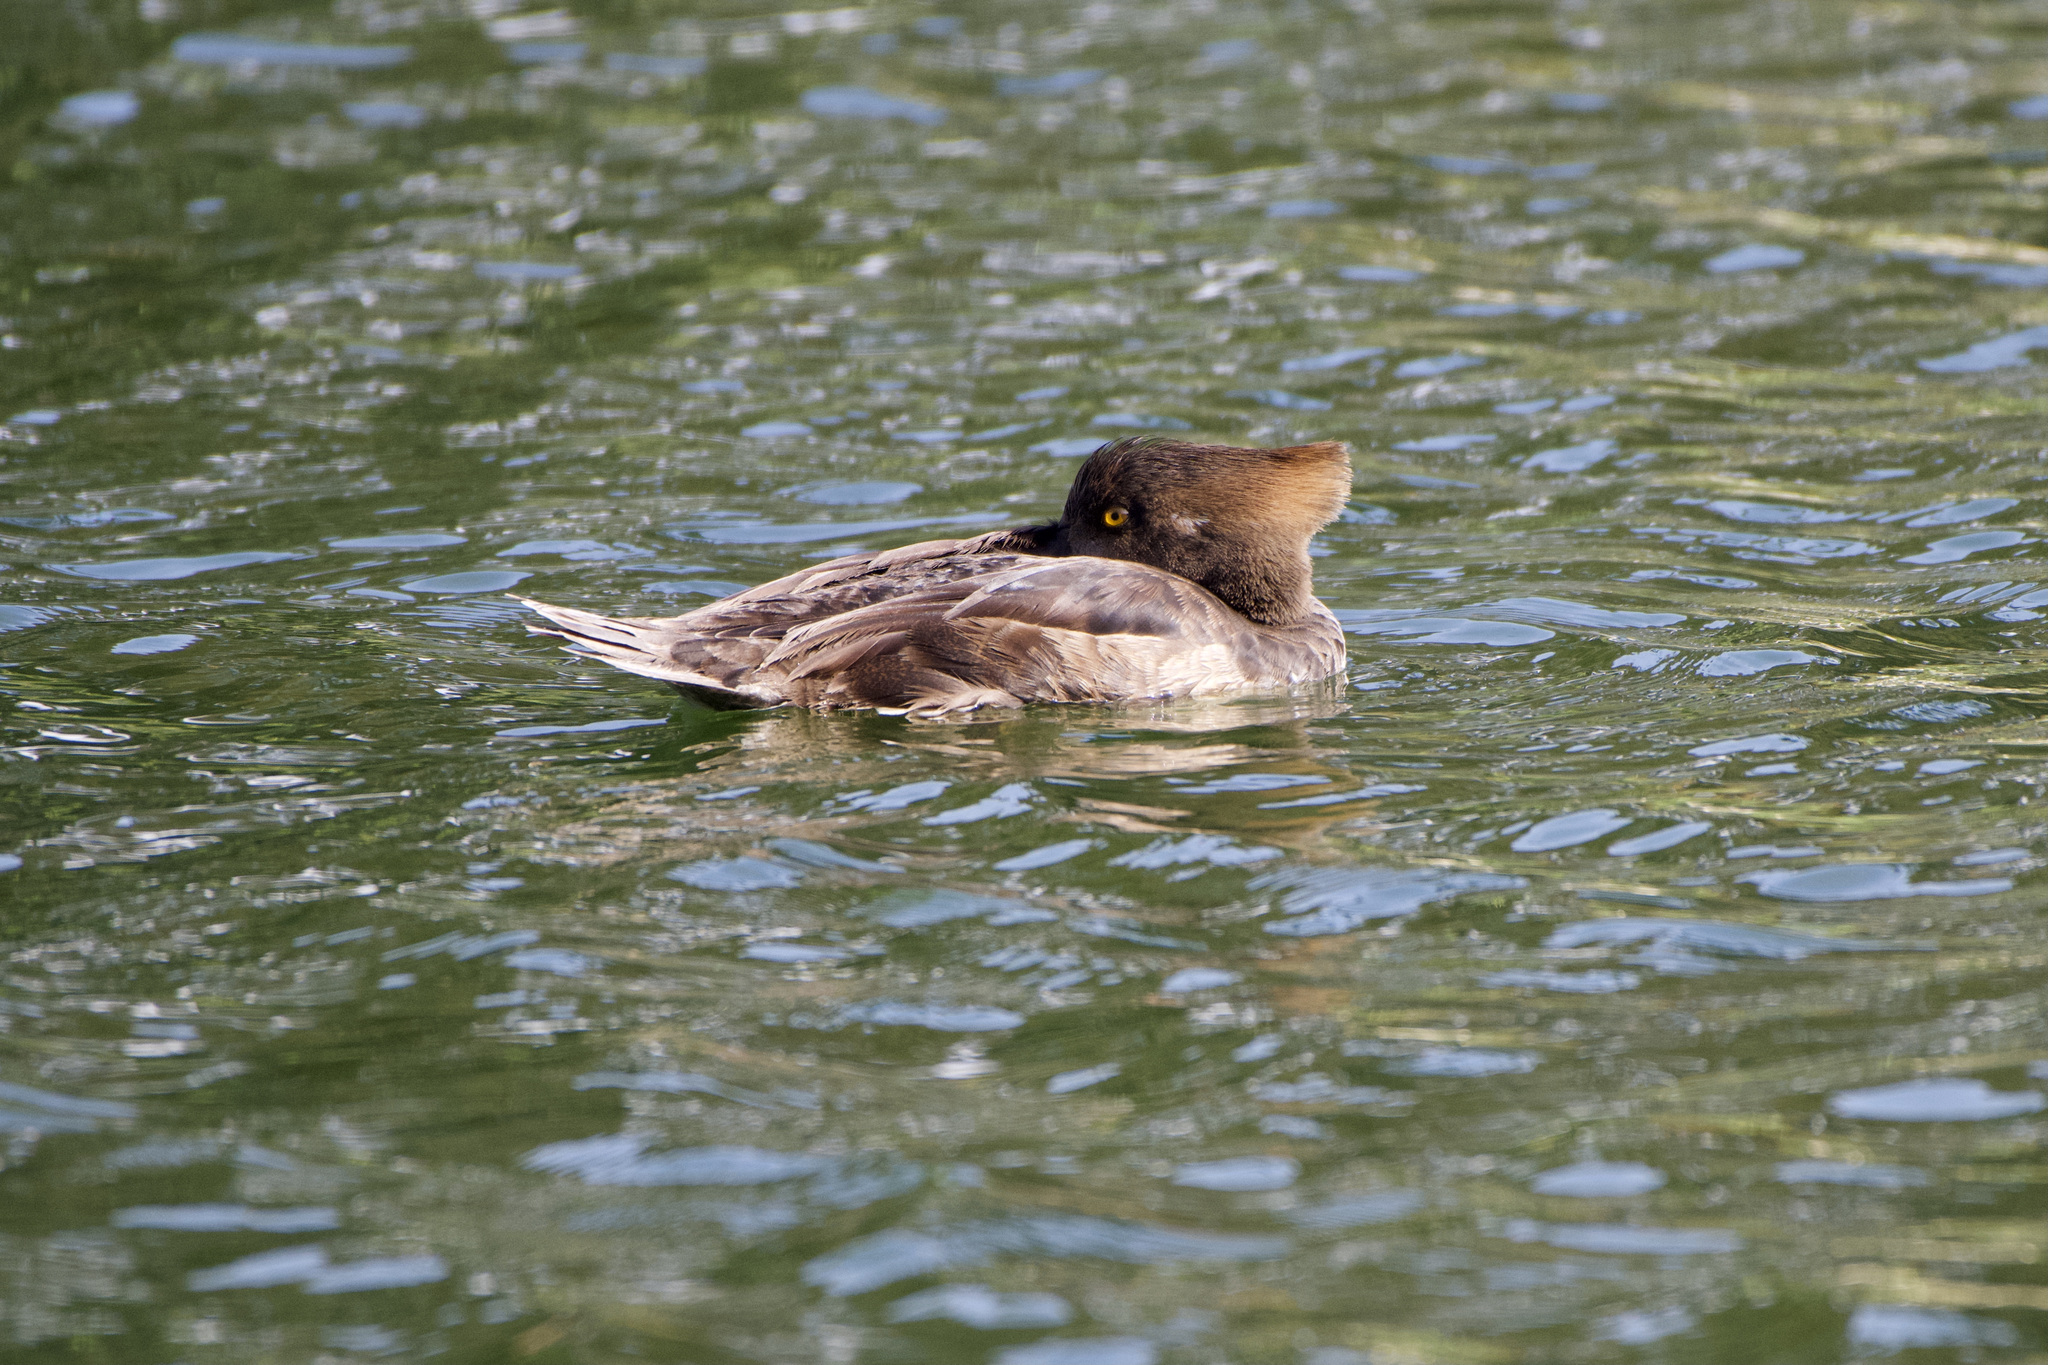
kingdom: Animalia
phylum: Chordata
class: Aves
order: Anseriformes
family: Anatidae
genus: Lophodytes
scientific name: Lophodytes cucullatus
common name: Hooded merganser
